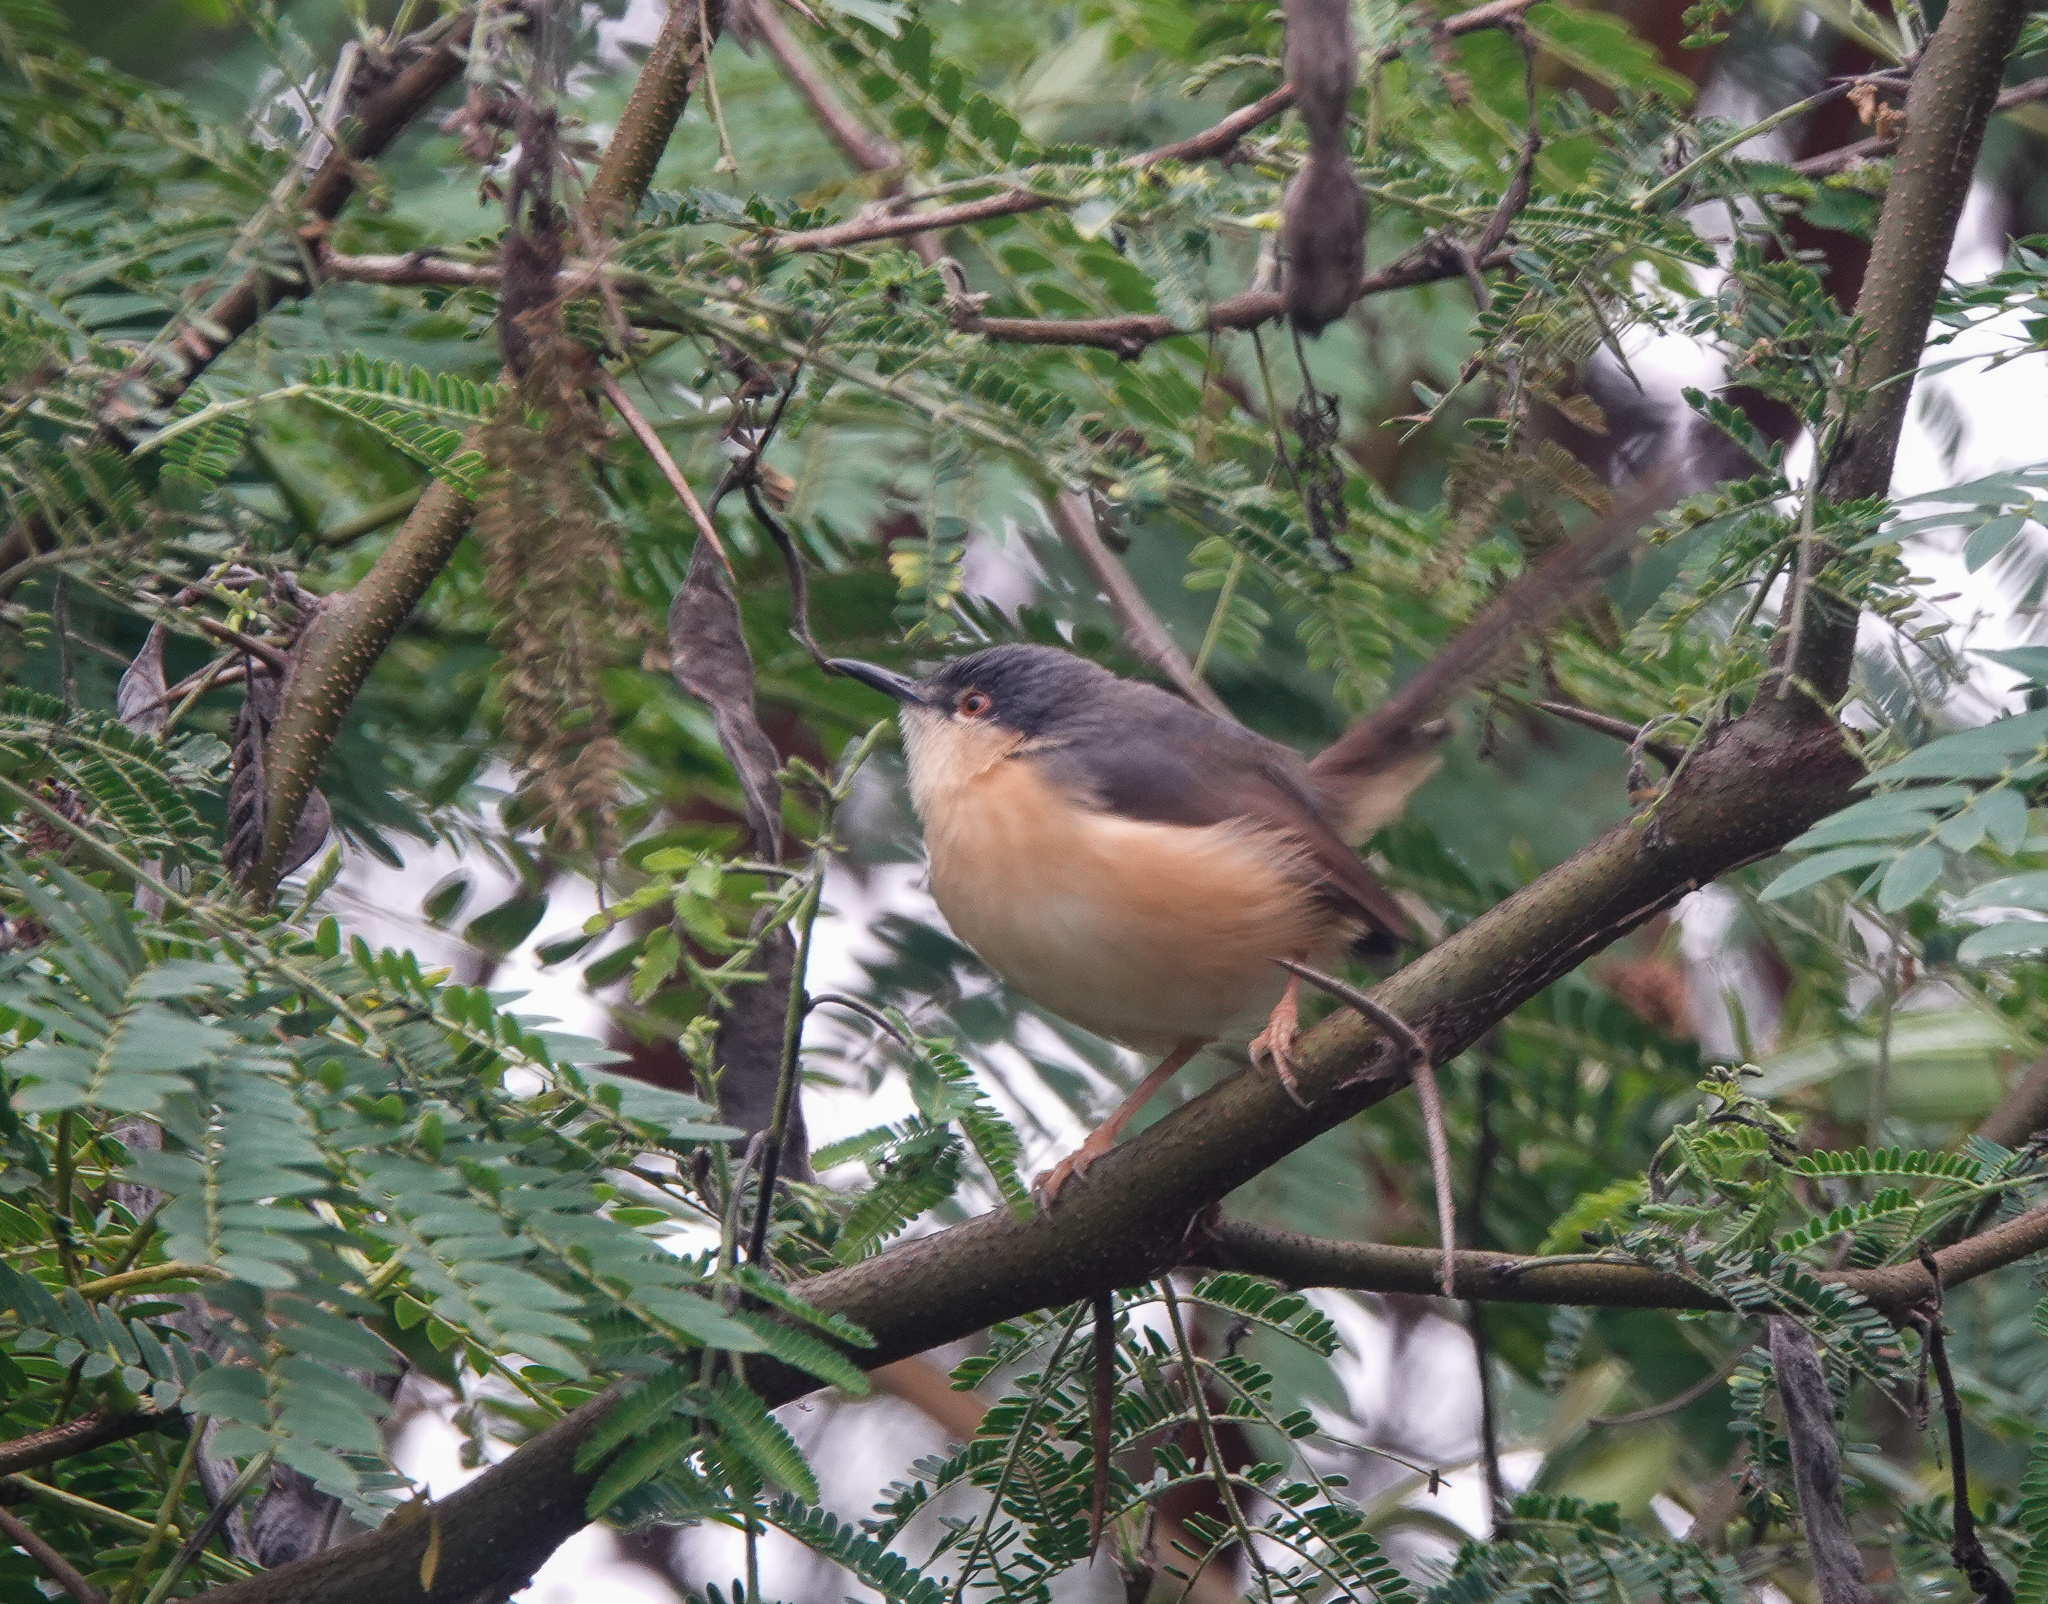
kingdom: Animalia
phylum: Chordata
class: Aves
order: Passeriformes
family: Cisticolidae
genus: Prinia
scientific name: Prinia socialis
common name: Ashy prinia
